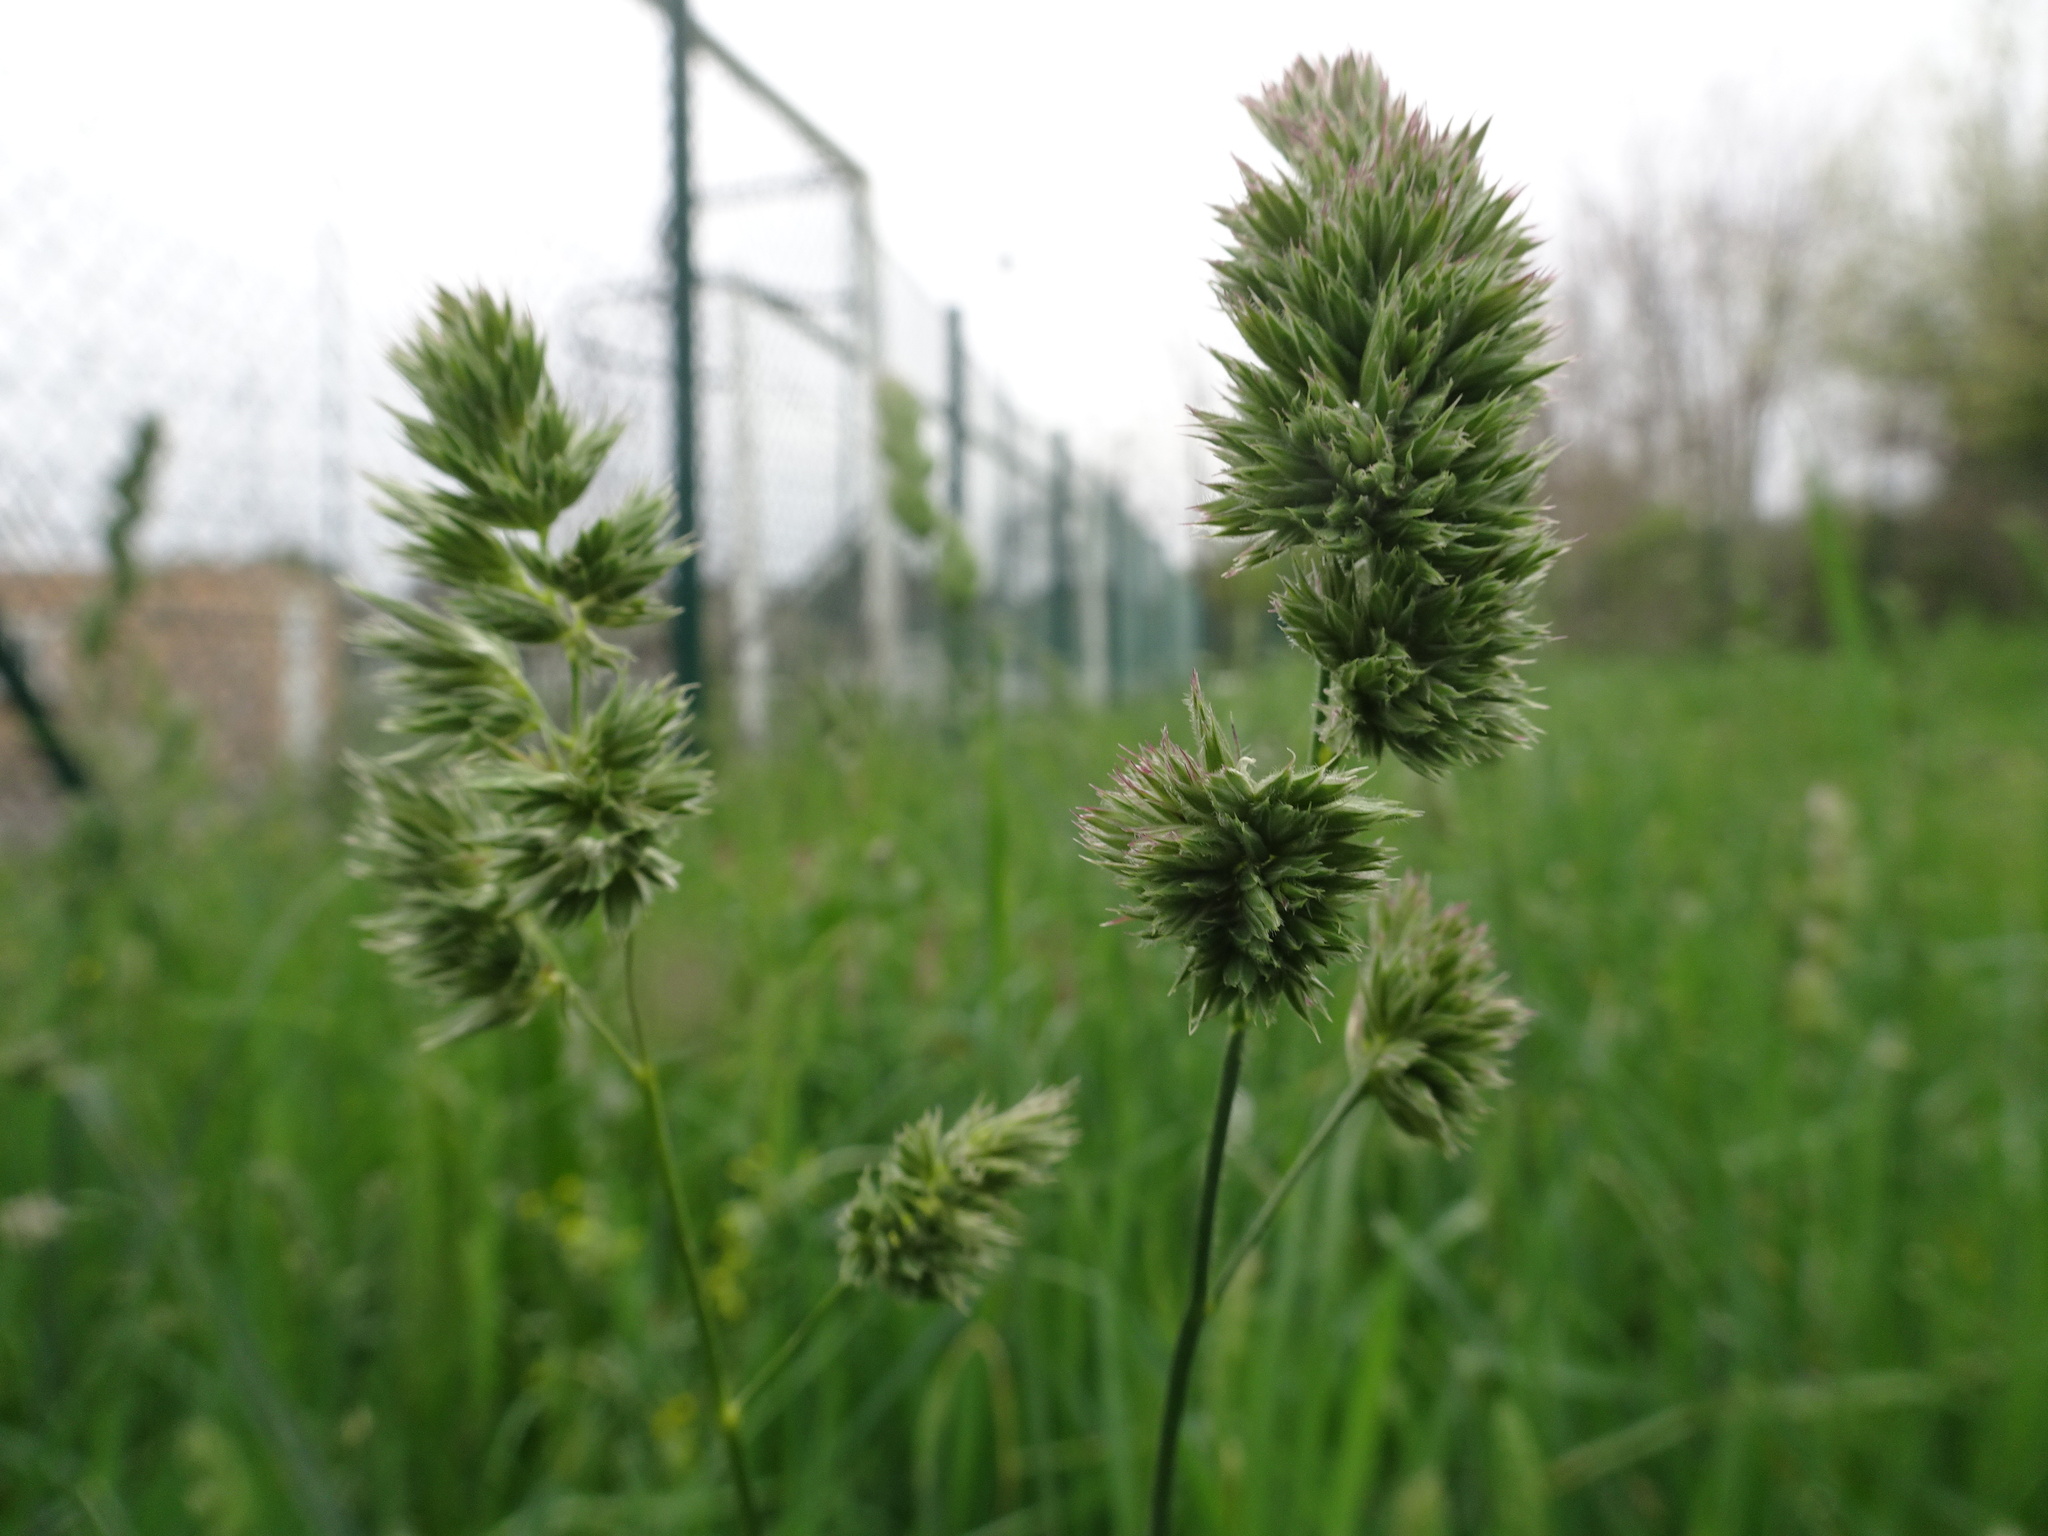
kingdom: Plantae
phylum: Tracheophyta
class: Liliopsida
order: Poales
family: Poaceae
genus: Dactylis
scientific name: Dactylis glomerata
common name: Orchardgrass
